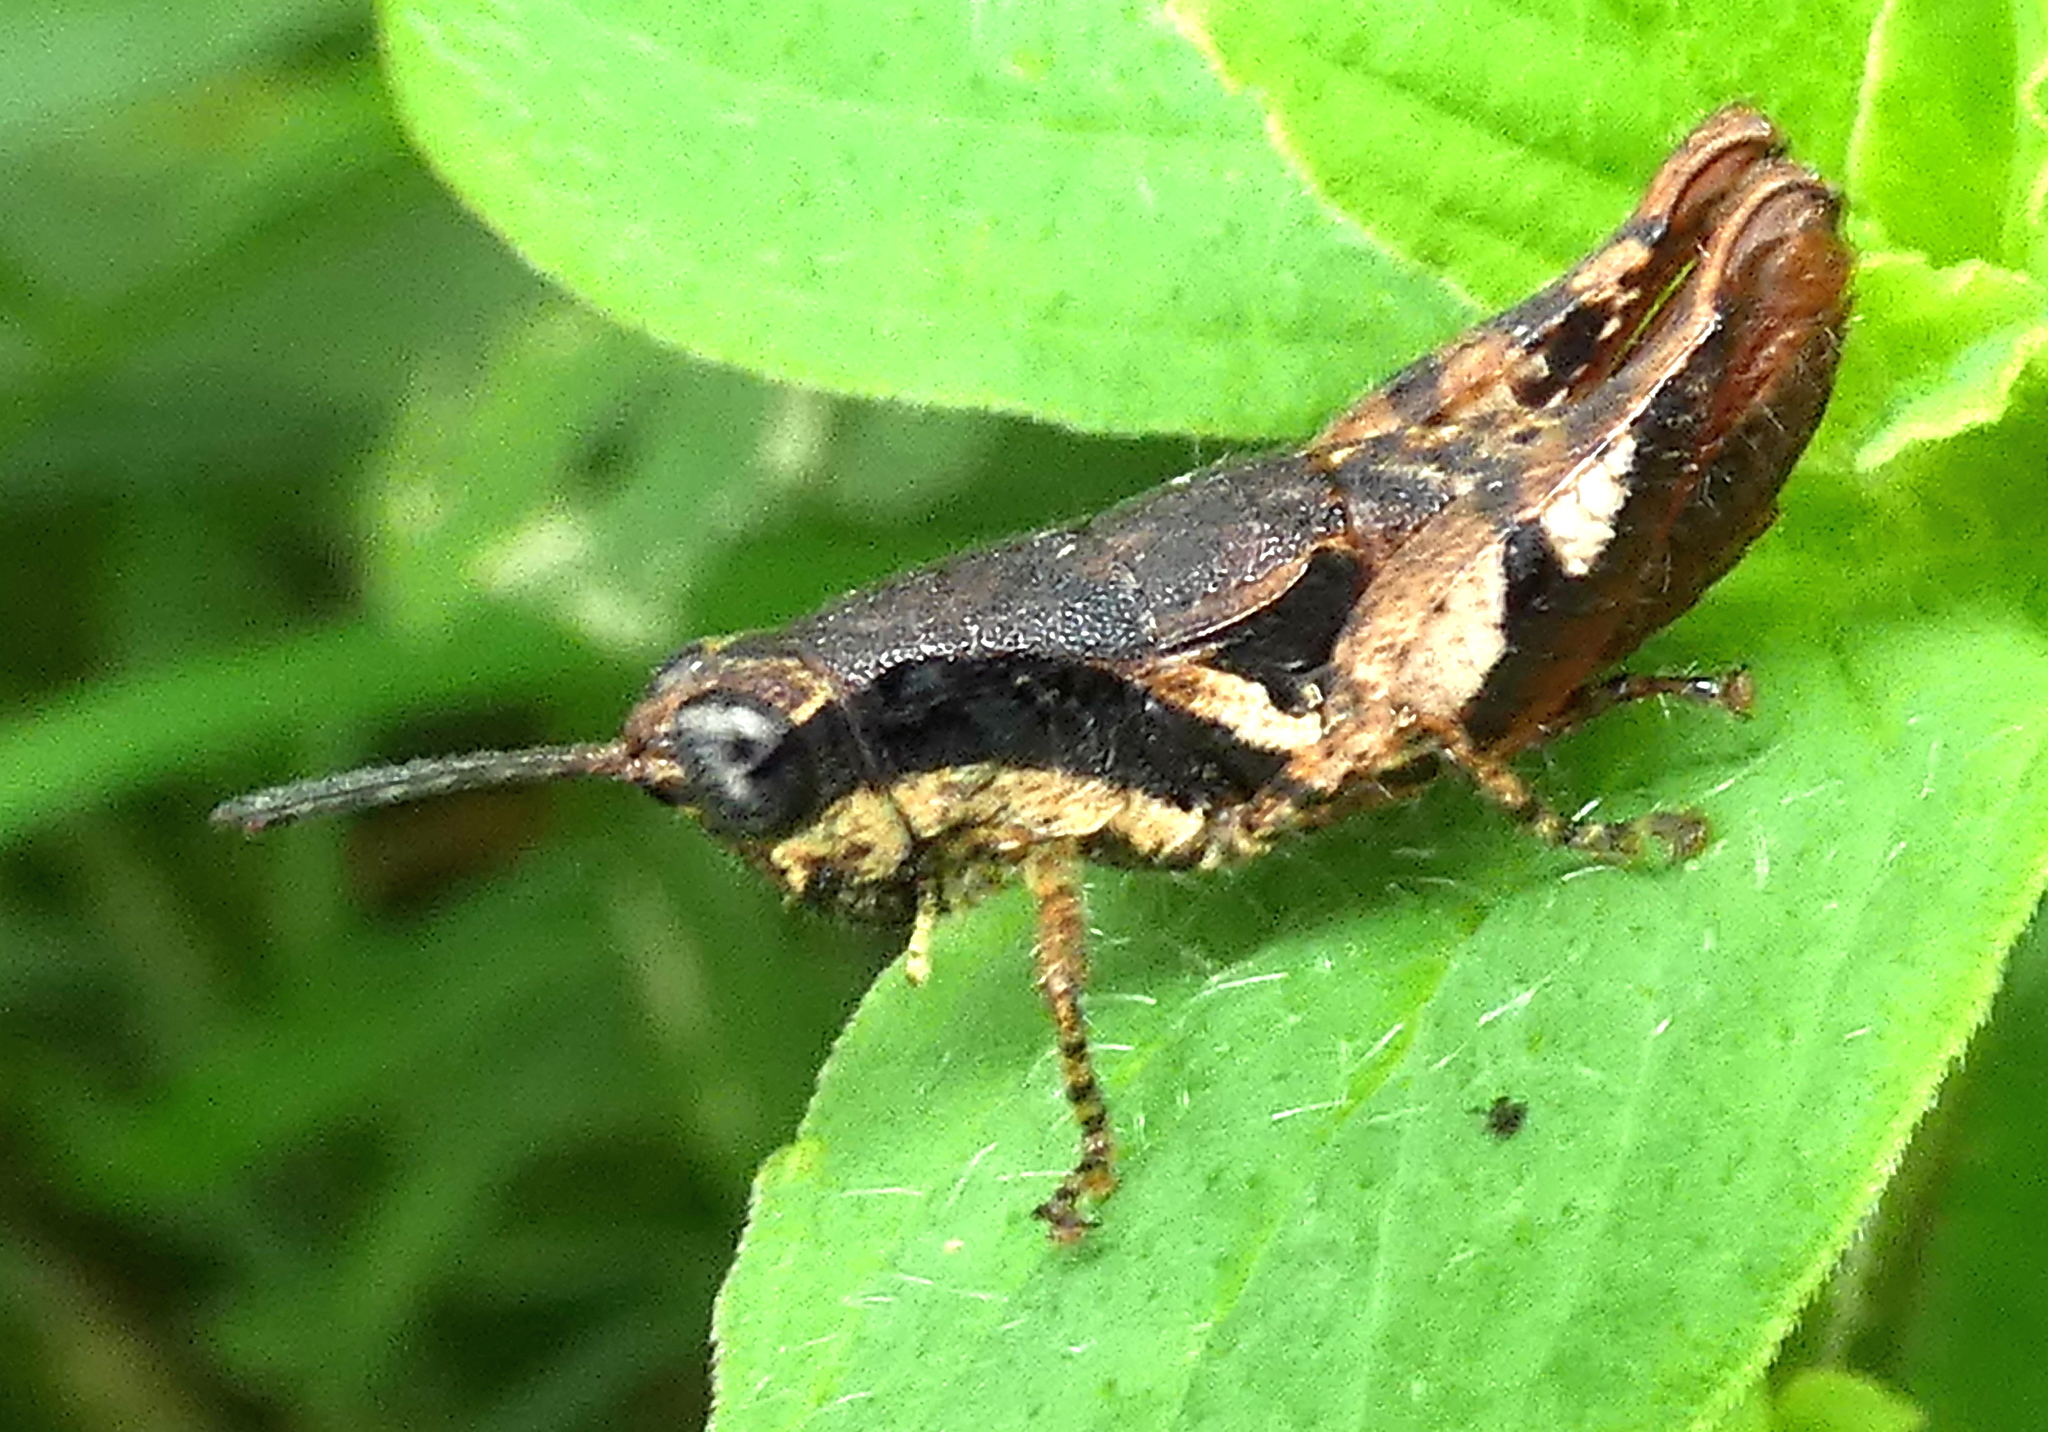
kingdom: Animalia
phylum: Arthropoda
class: Insecta
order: Orthoptera
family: Acrididae
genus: Eujivarus
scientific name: Eujivarus meridionalis
